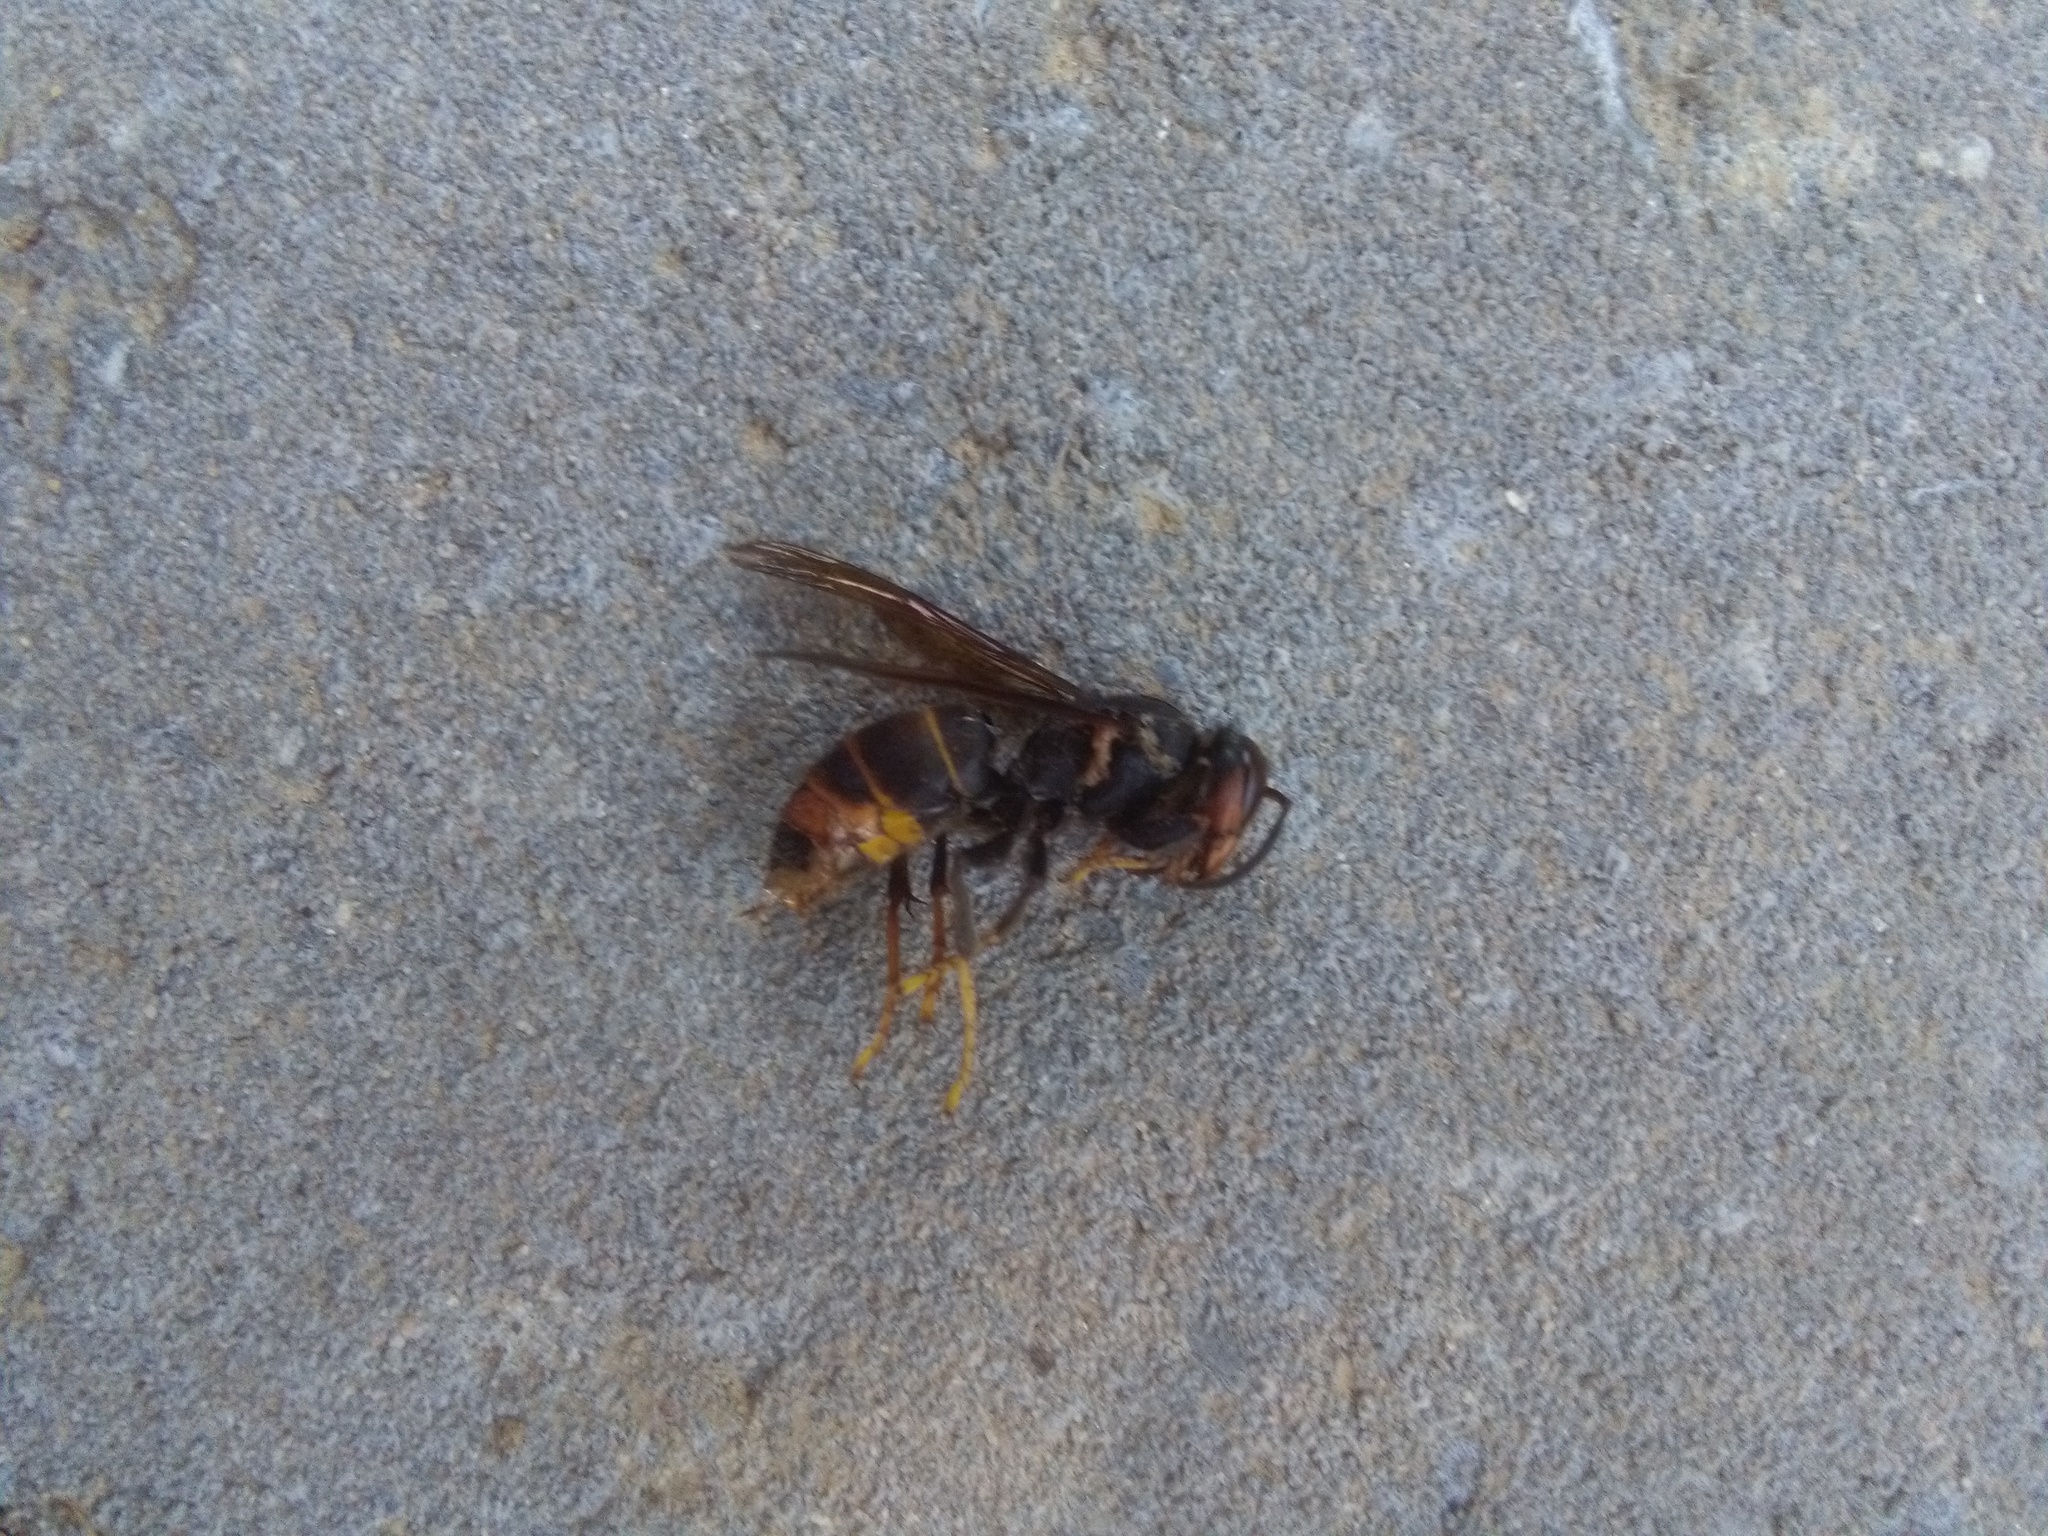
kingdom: Animalia
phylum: Arthropoda
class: Insecta
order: Hymenoptera
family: Vespidae
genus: Vespa
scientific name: Vespa velutina
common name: Asian hornet
